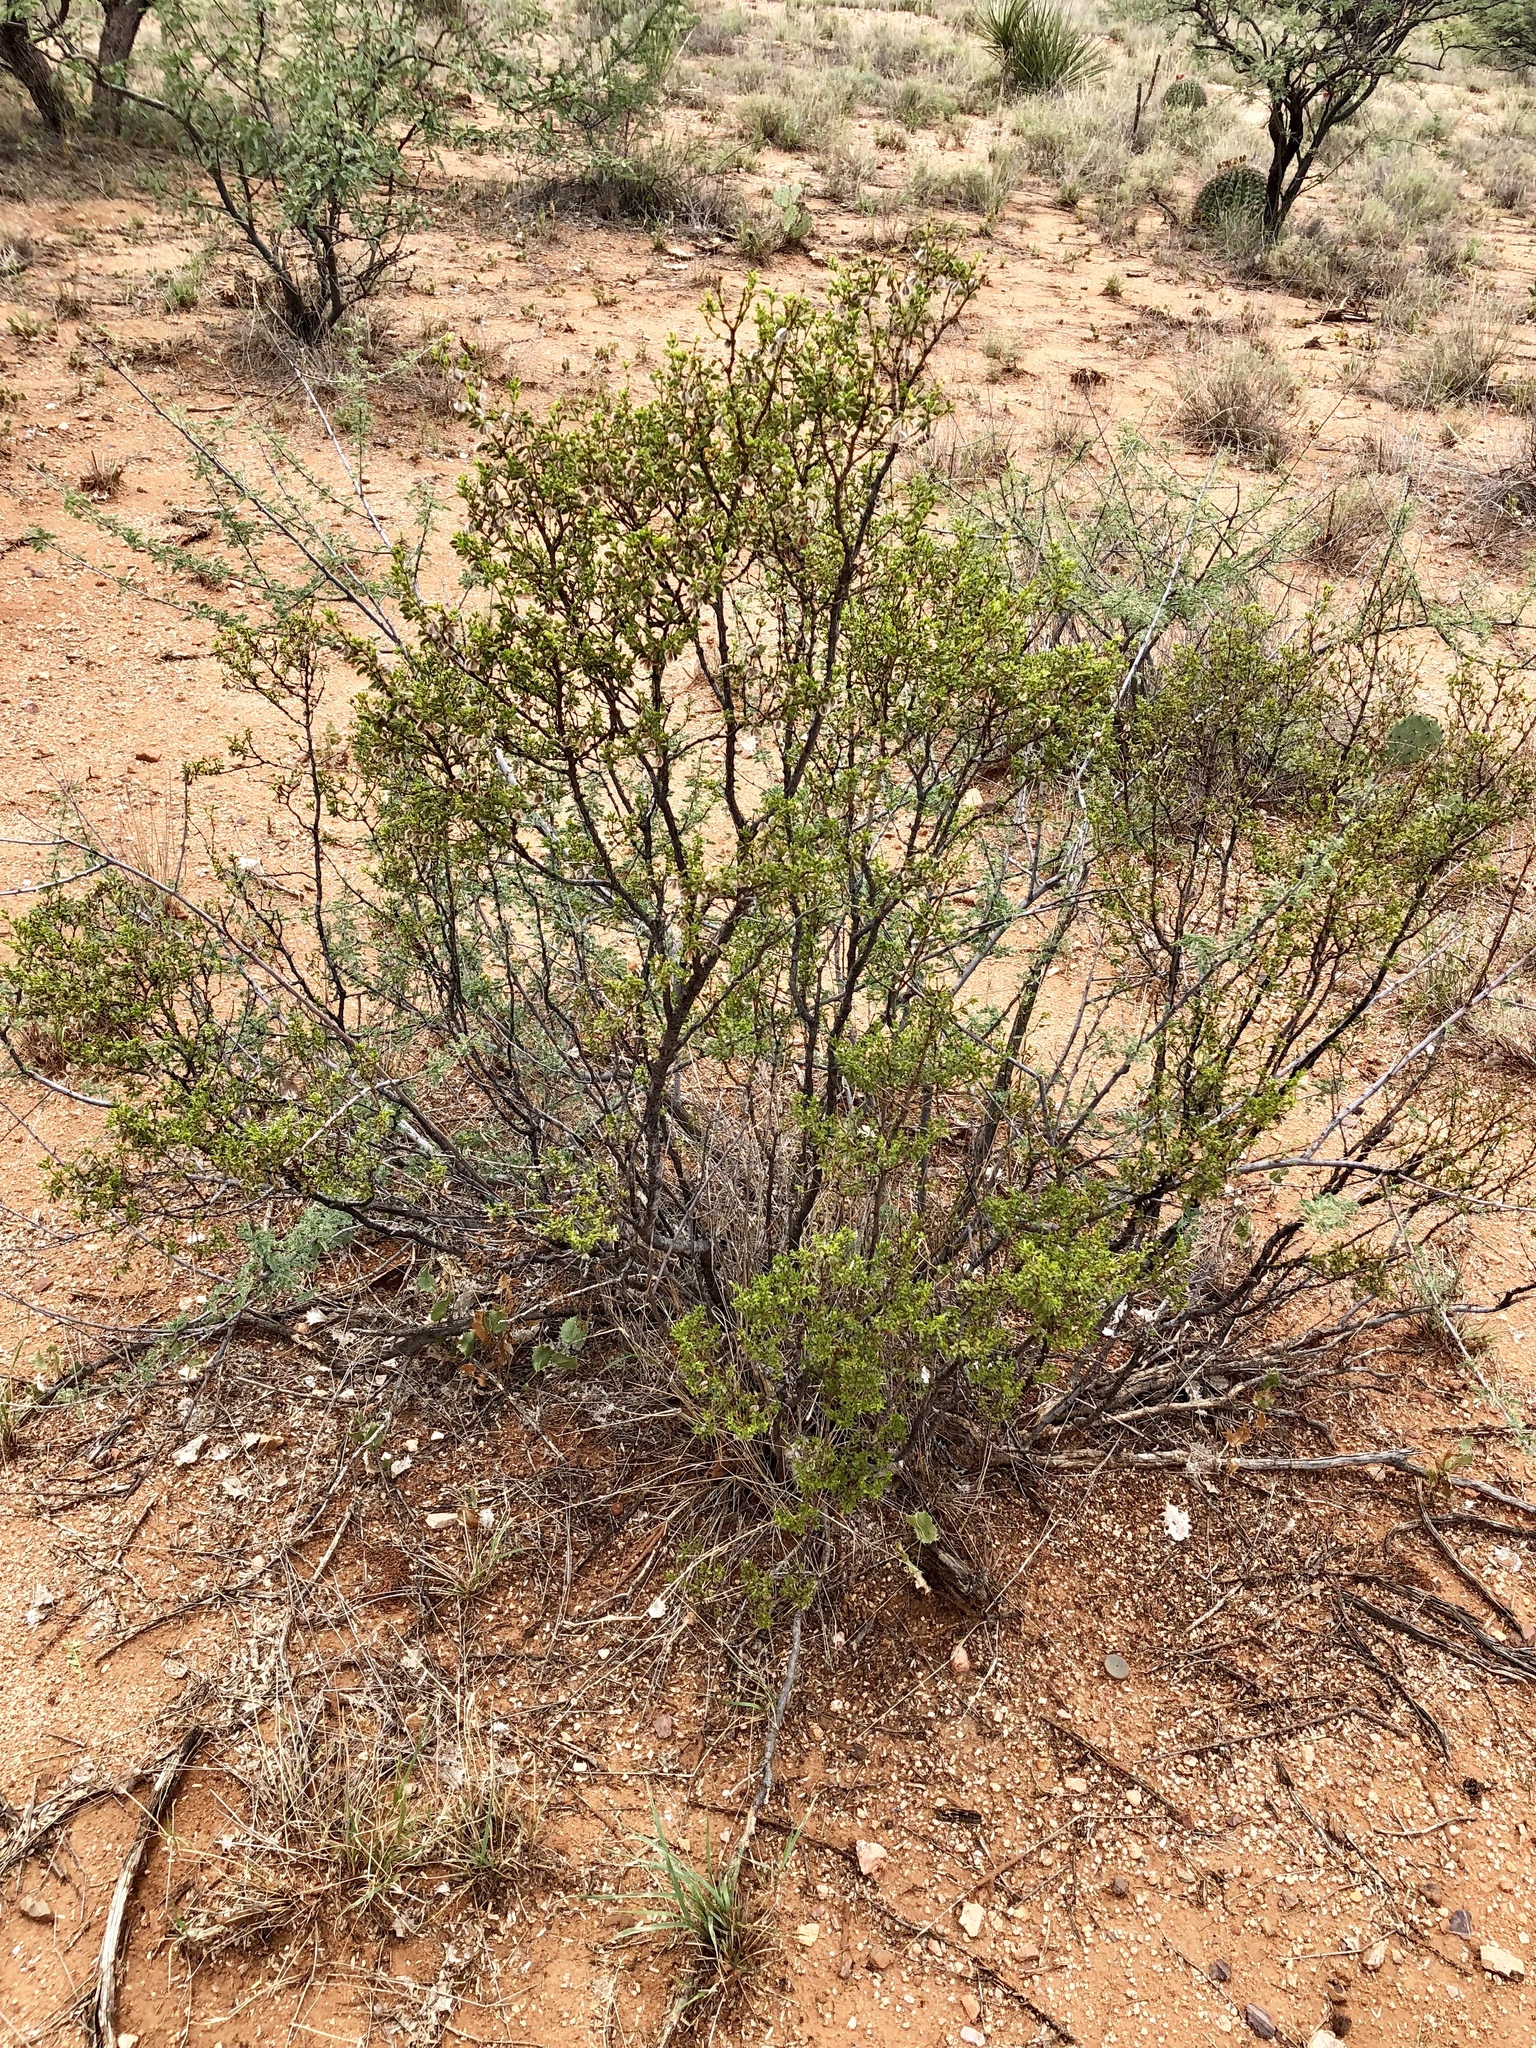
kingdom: Plantae
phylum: Tracheophyta
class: Magnoliopsida
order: Zygophyllales
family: Zygophyllaceae
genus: Larrea
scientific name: Larrea tridentata
